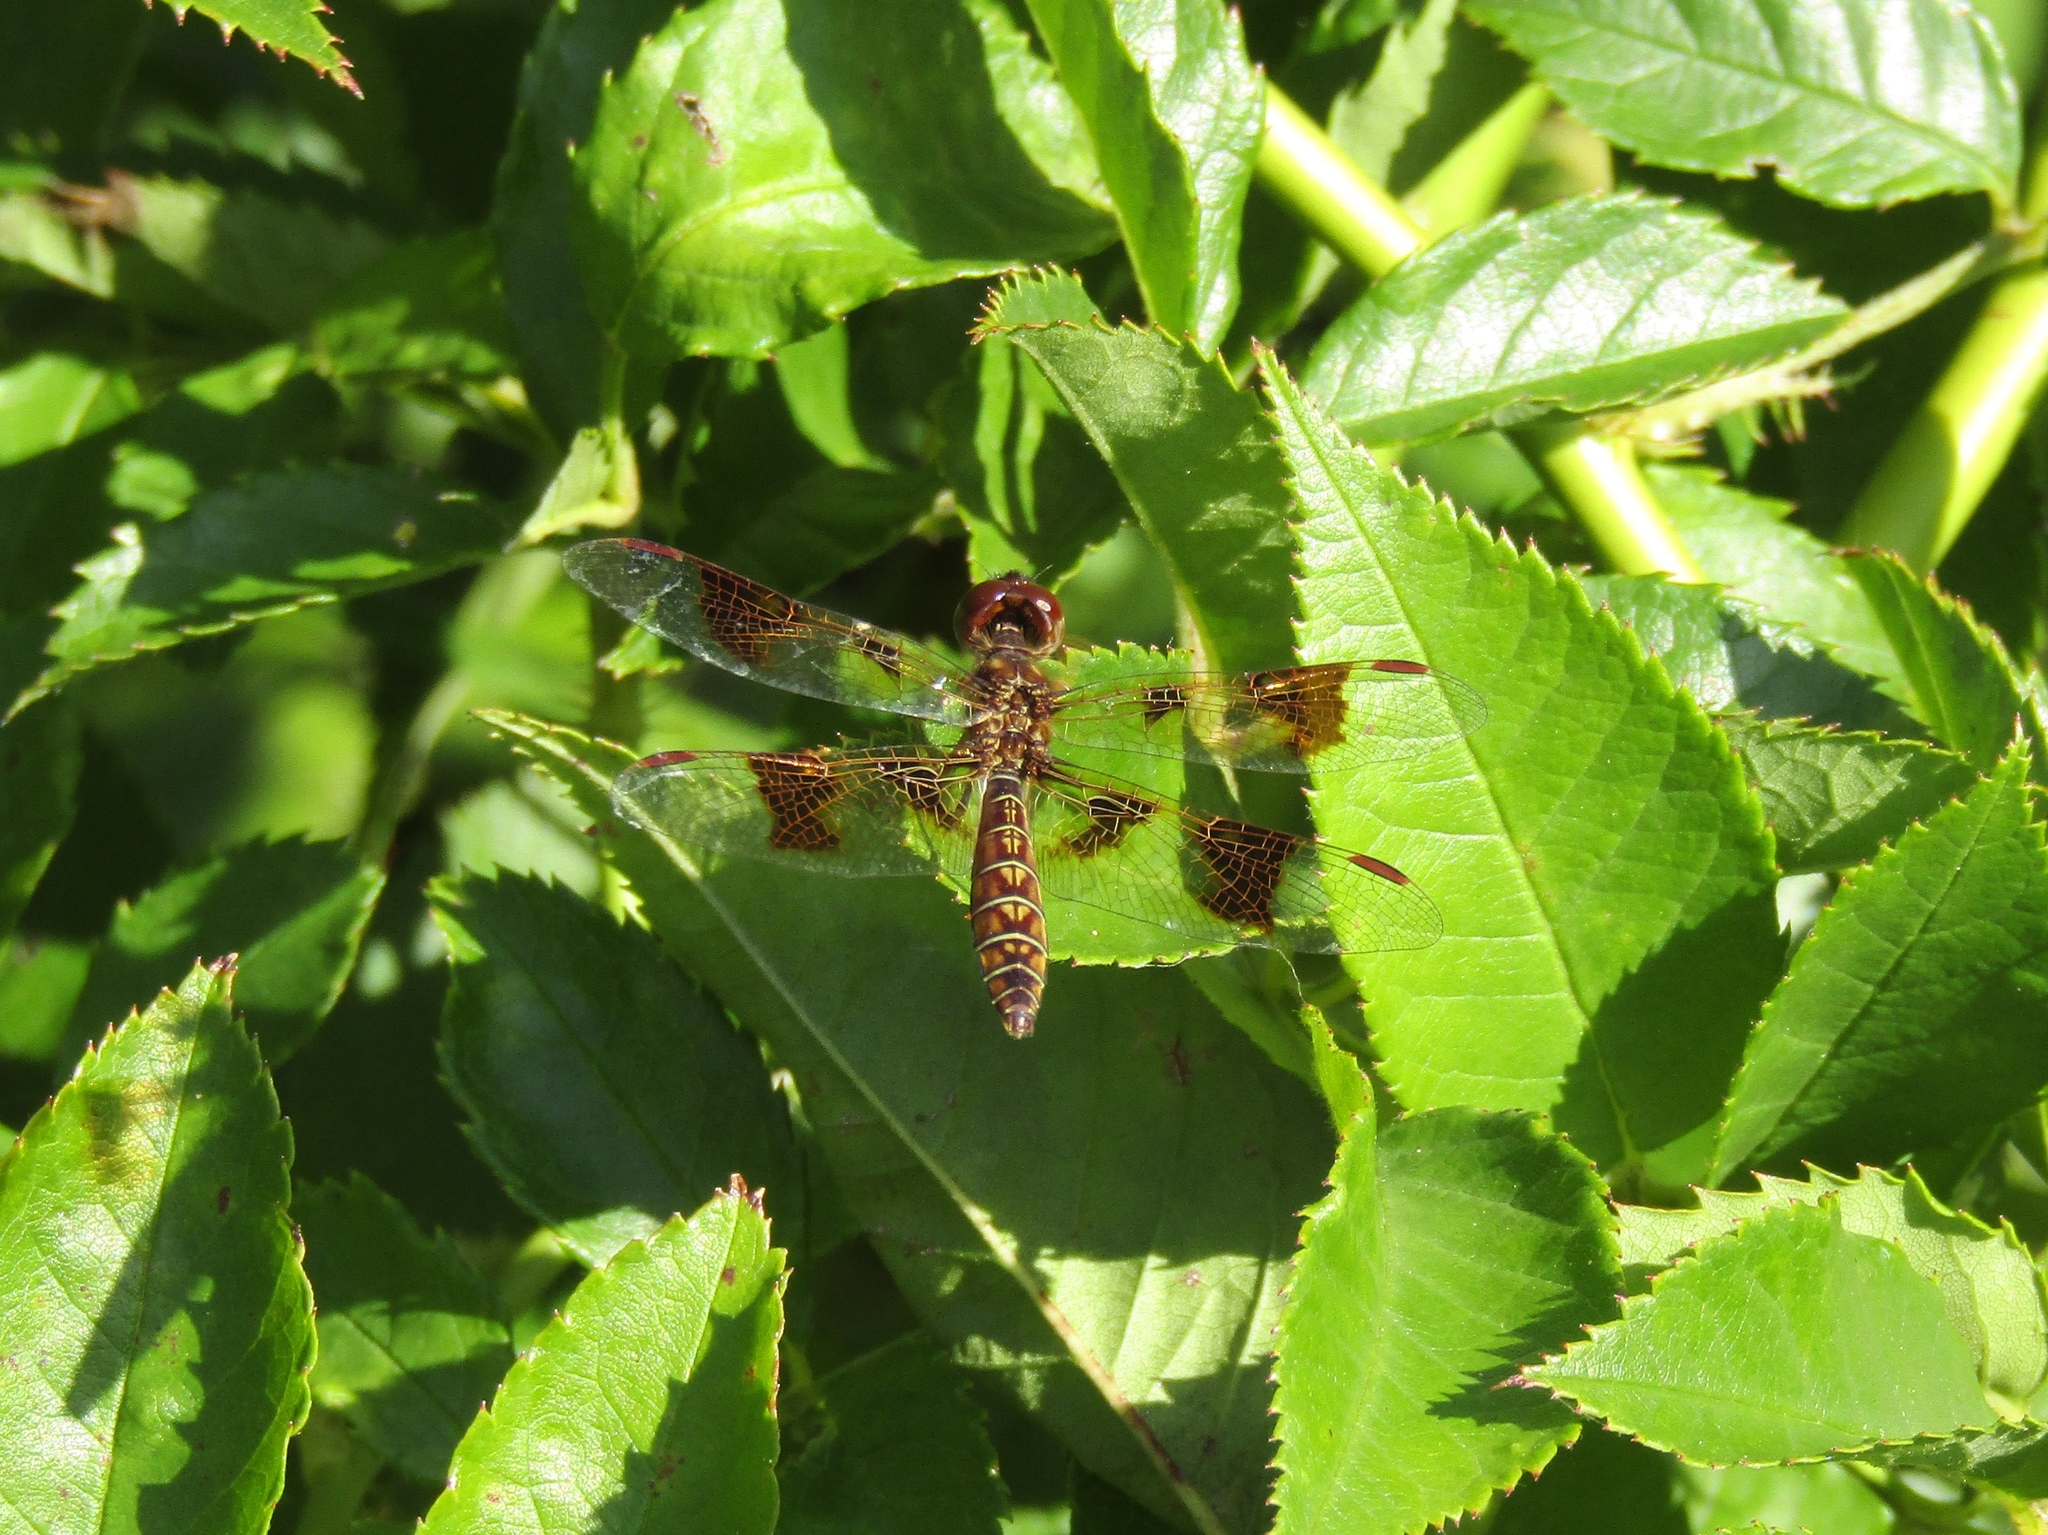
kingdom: Animalia
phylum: Arthropoda
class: Insecta
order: Odonata
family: Libellulidae
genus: Perithemis
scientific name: Perithemis tenera
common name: Eastern amberwing
